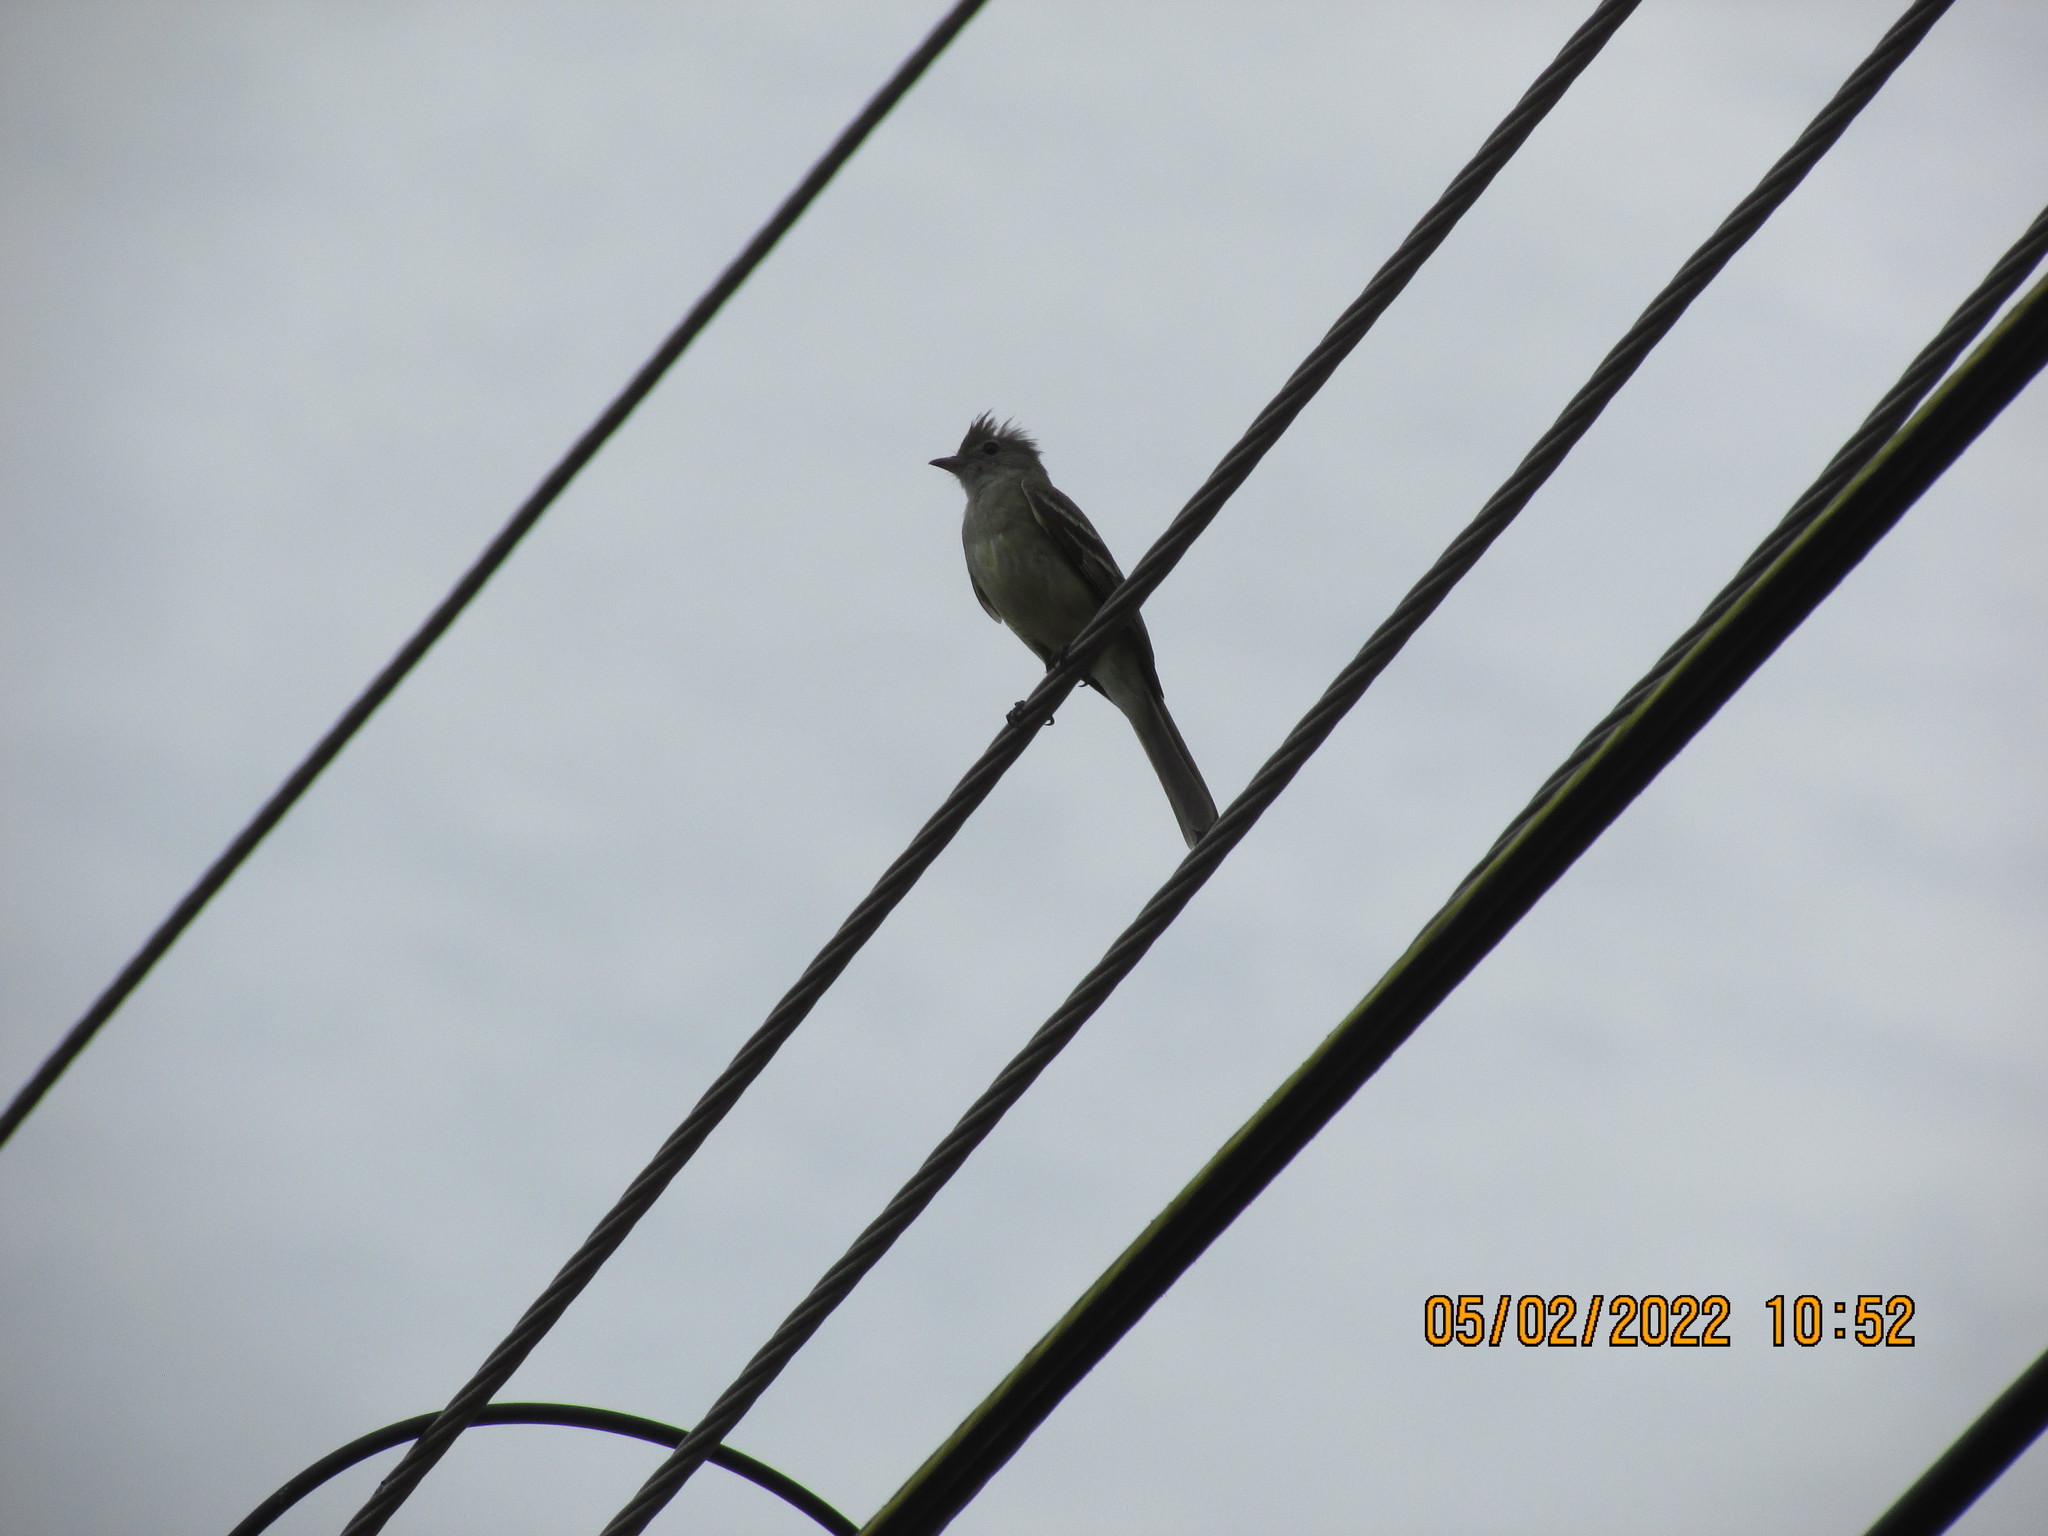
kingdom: Animalia
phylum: Chordata
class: Aves
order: Passeriformes
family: Tyrannidae
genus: Elaenia
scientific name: Elaenia flavogaster
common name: Yellow-bellied elaenia
